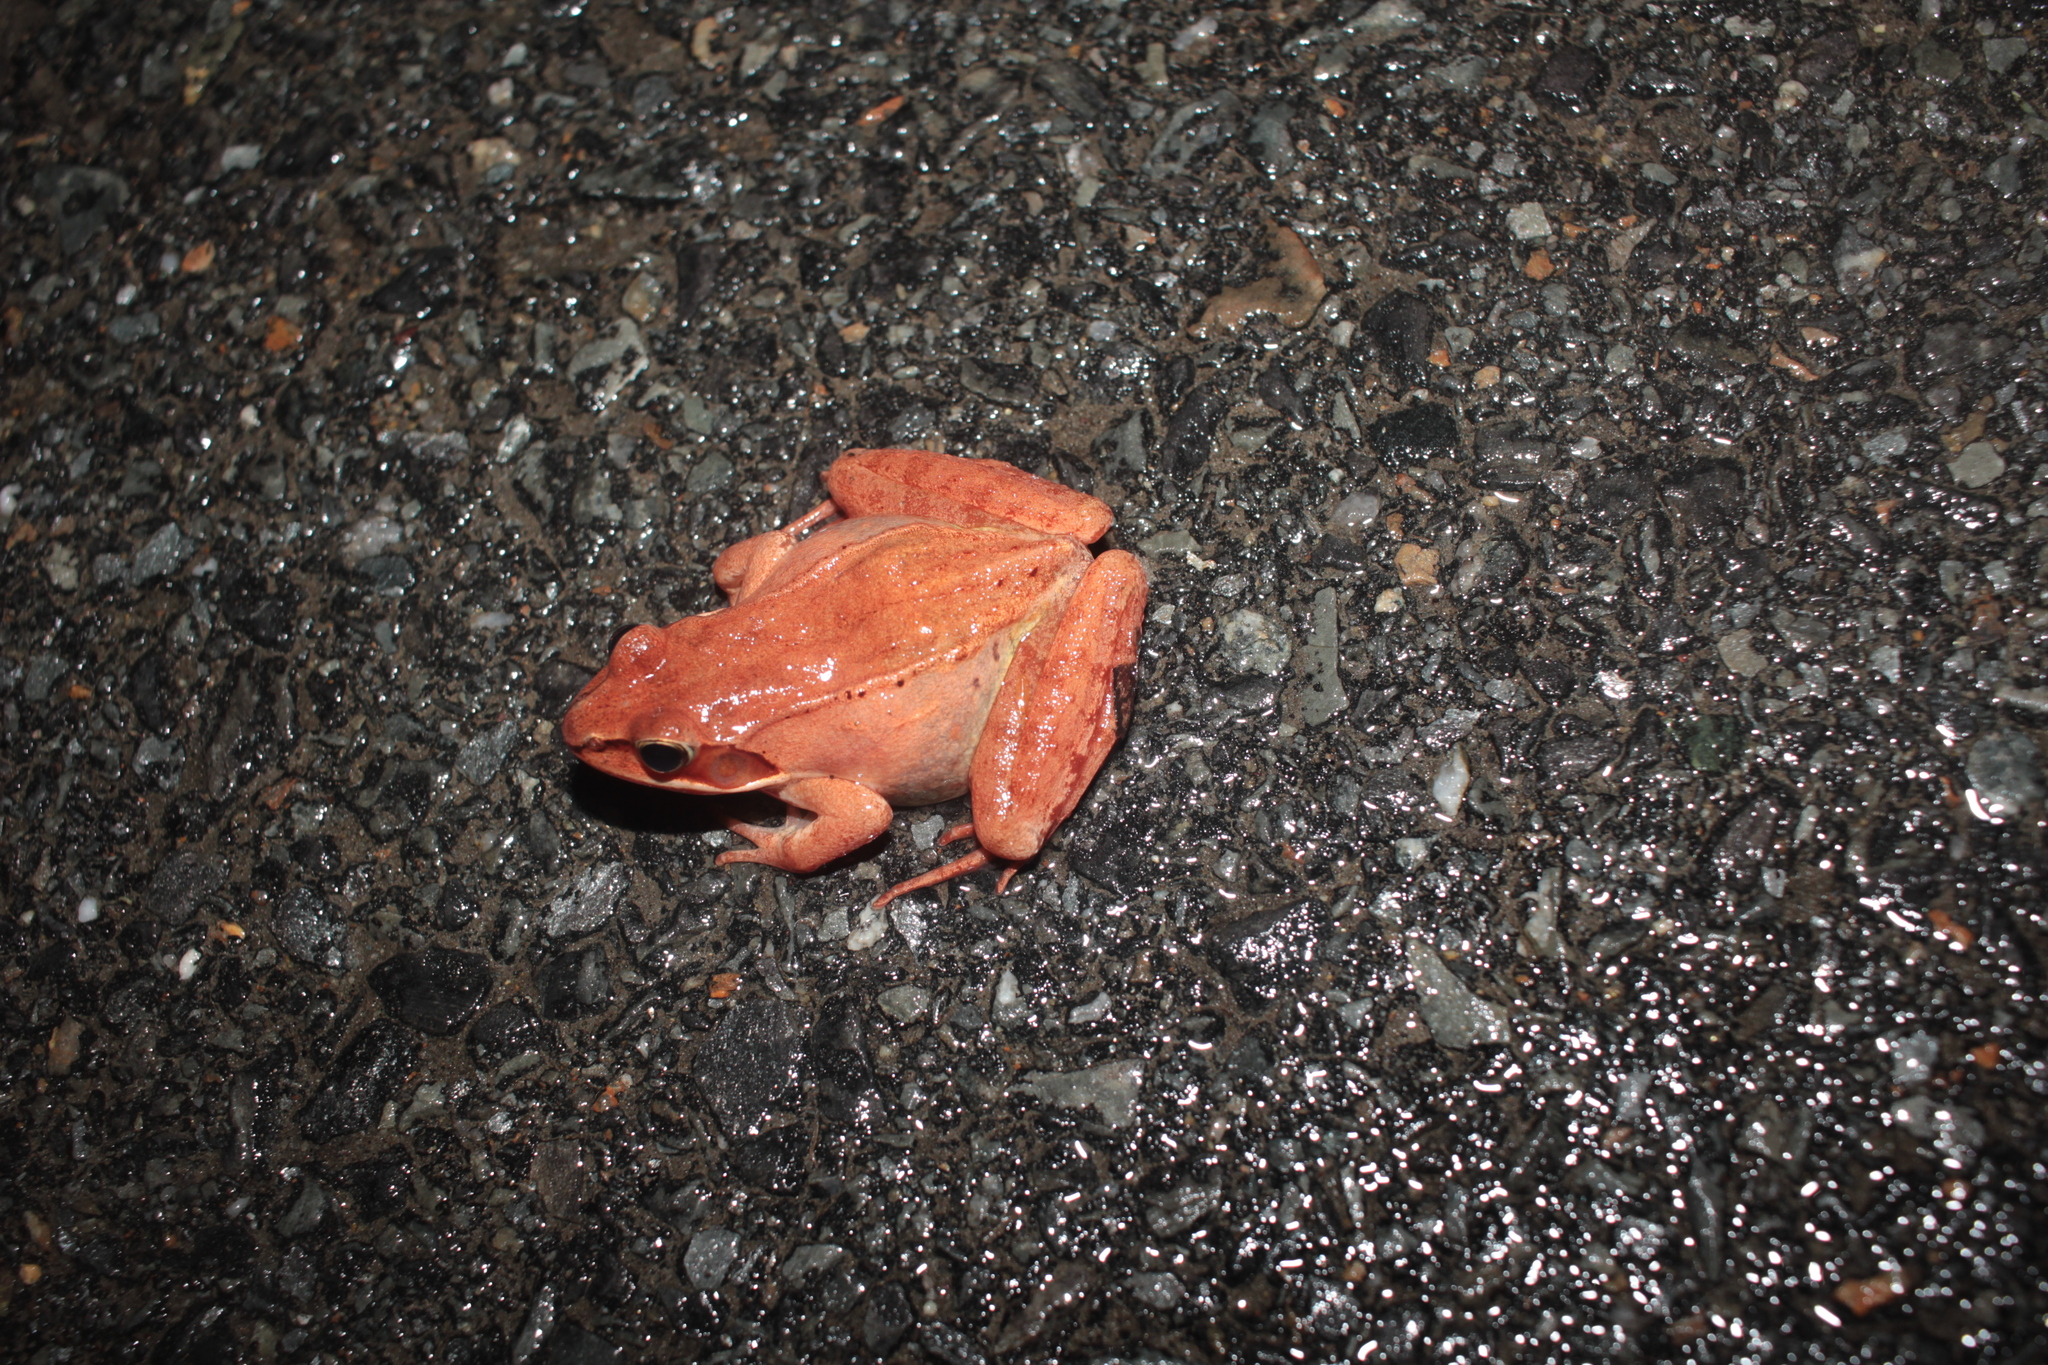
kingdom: Animalia
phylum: Chordata
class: Amphibia
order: Anura
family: Ranidae
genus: Lithobates
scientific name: Lithobates sylvaticus
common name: Wood frog
